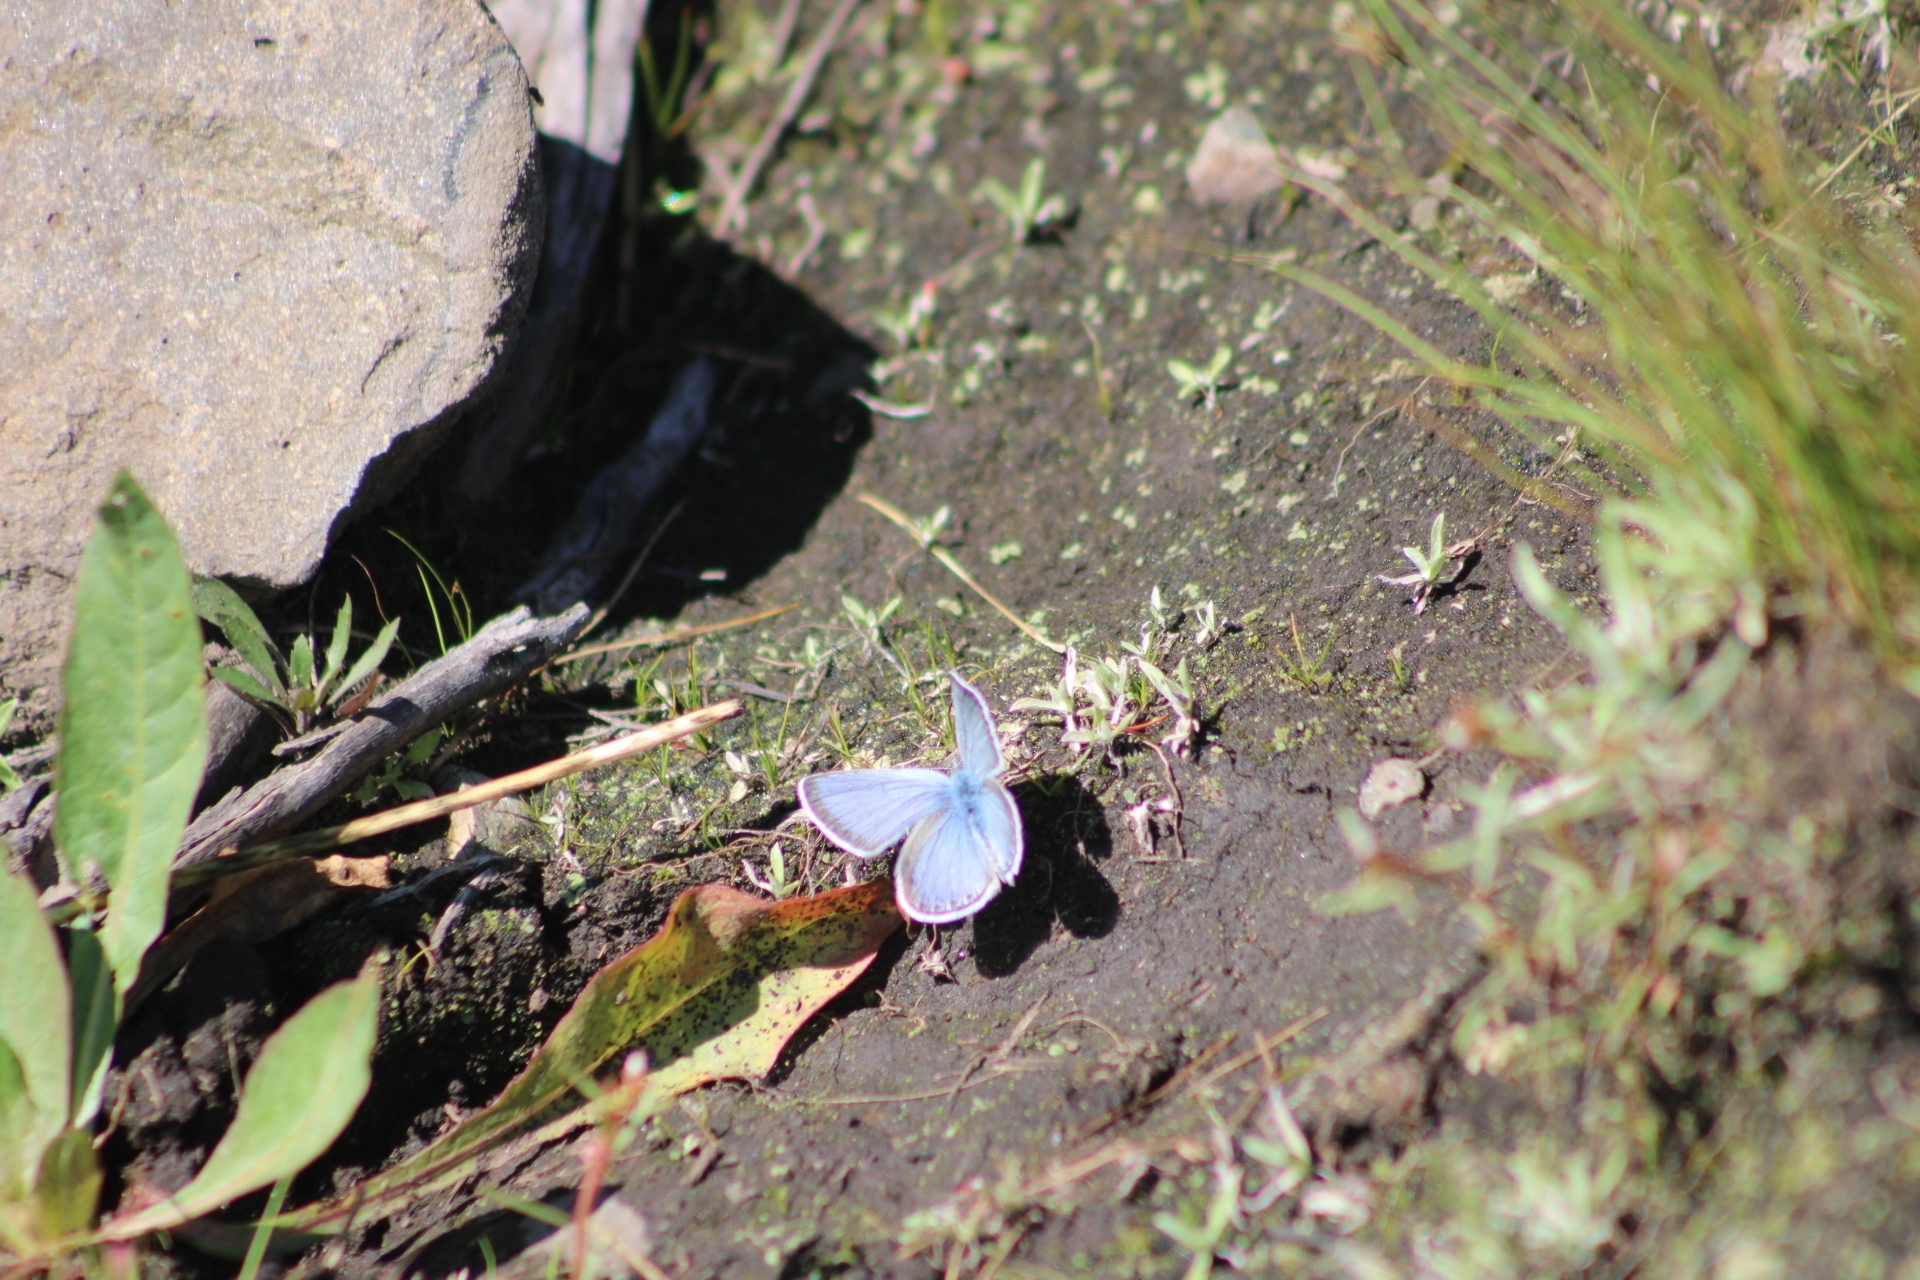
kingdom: Animalia
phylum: Arthropoda
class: Insecta
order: Lepidoptera
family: Lycaenidae
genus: Elkalyce
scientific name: Elkalyce amyntula
